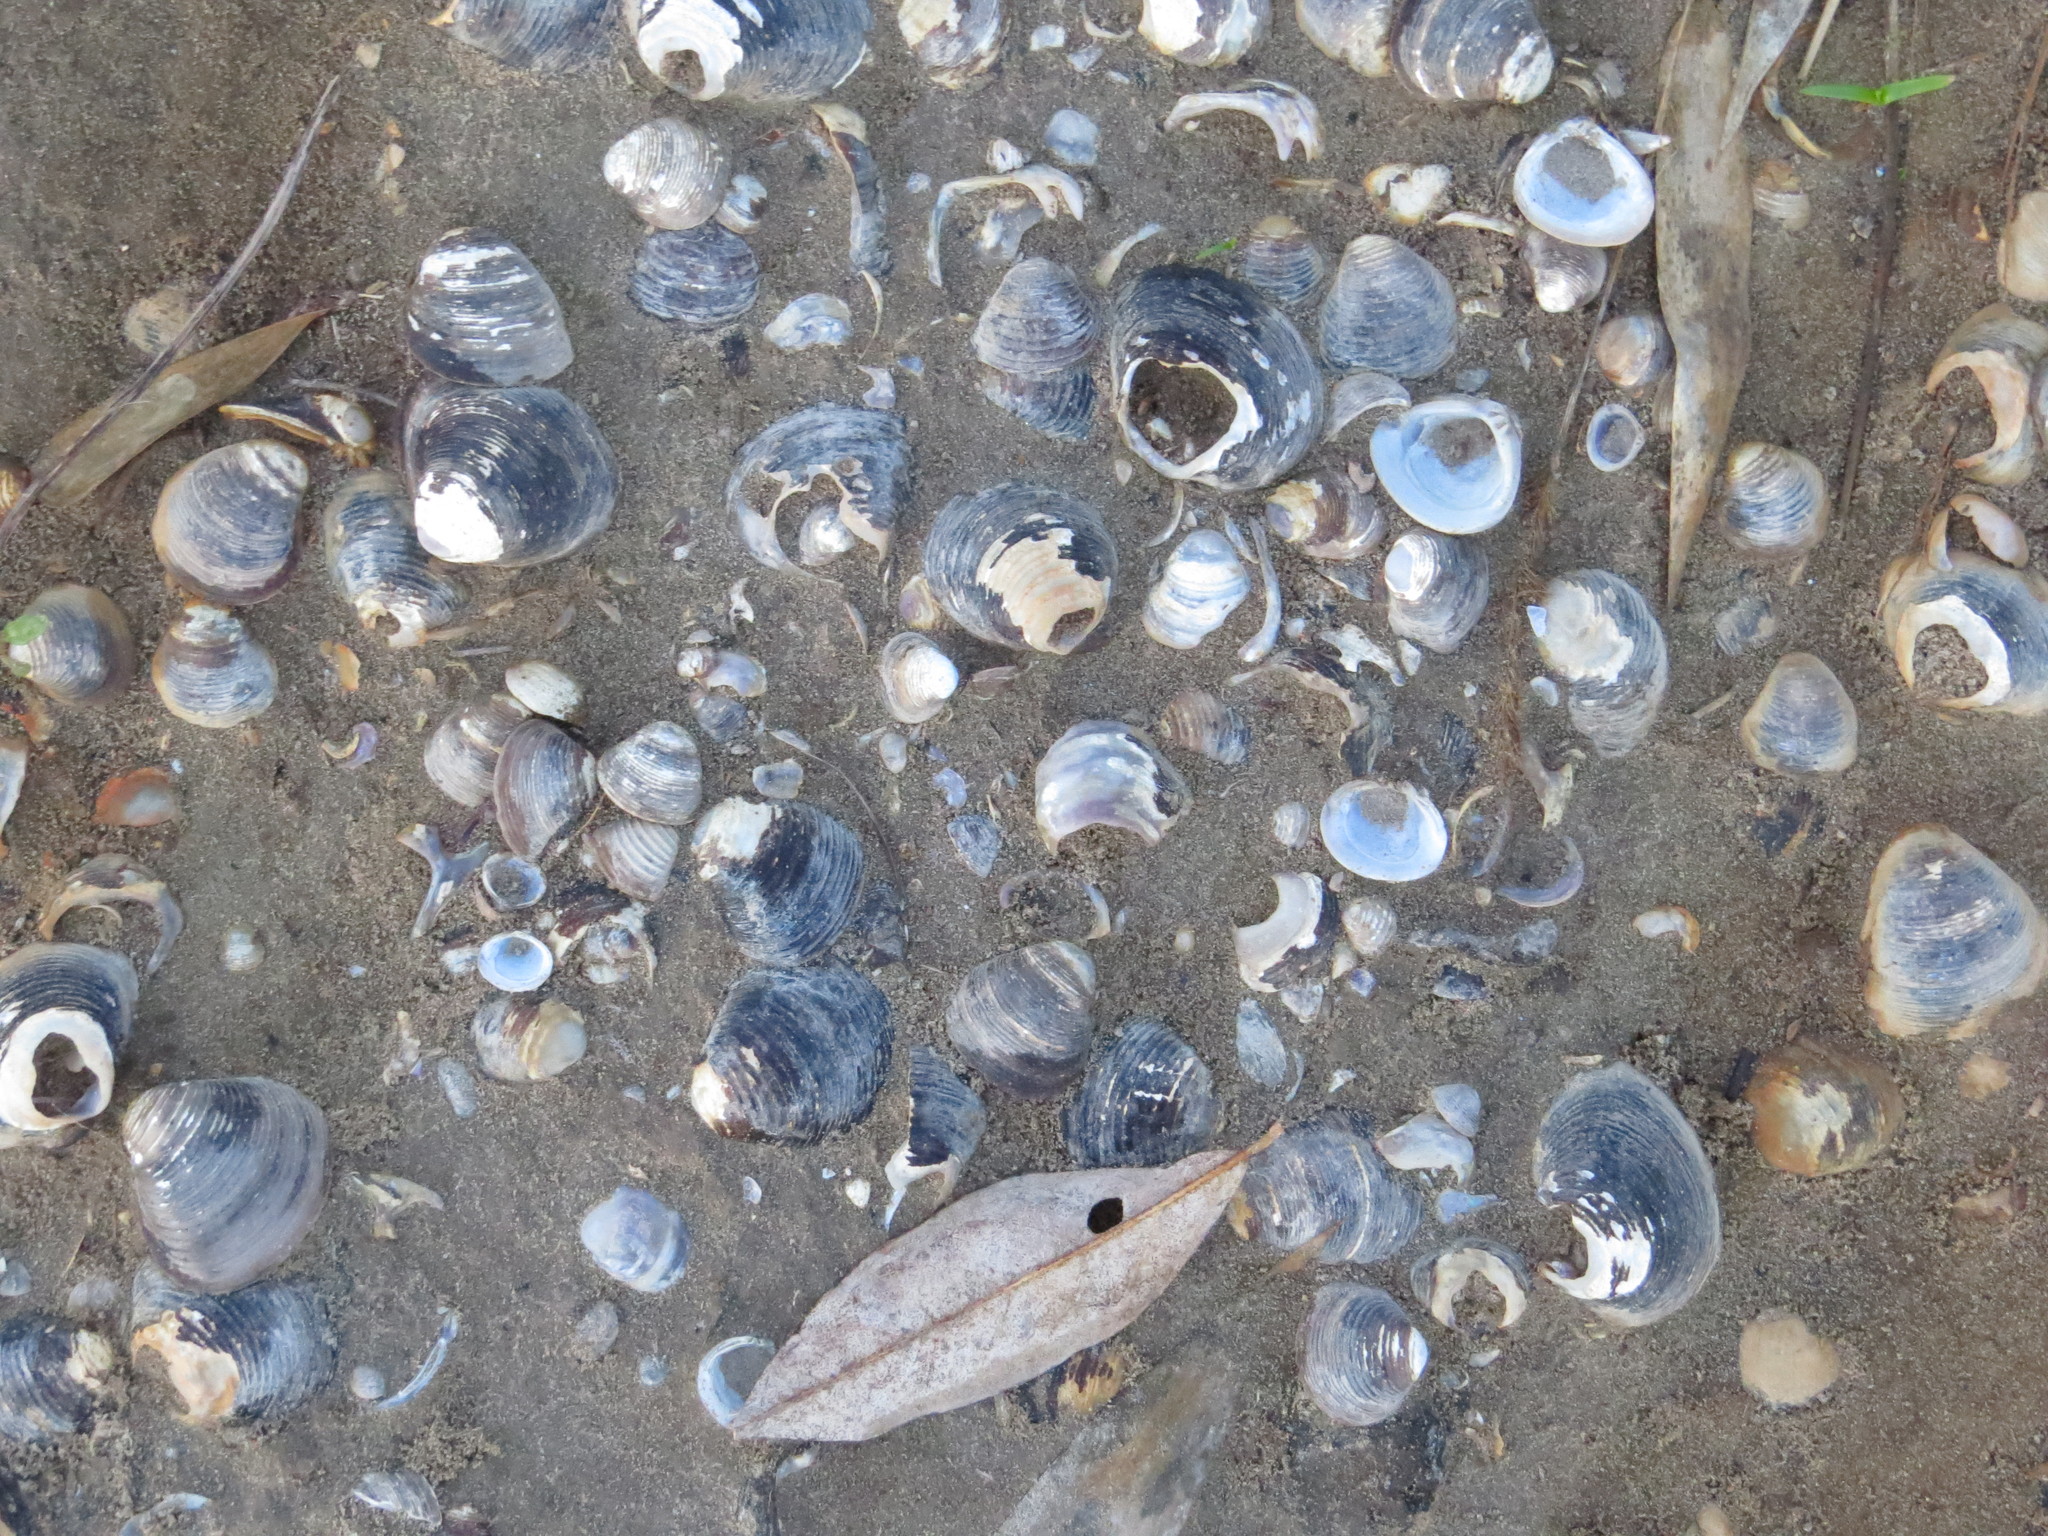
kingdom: Animalia
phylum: Mollusca
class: Bivalvia
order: Venerida
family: Cyrenidae
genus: Corbicula
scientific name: Corbicula fluminea
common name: Asian clam
